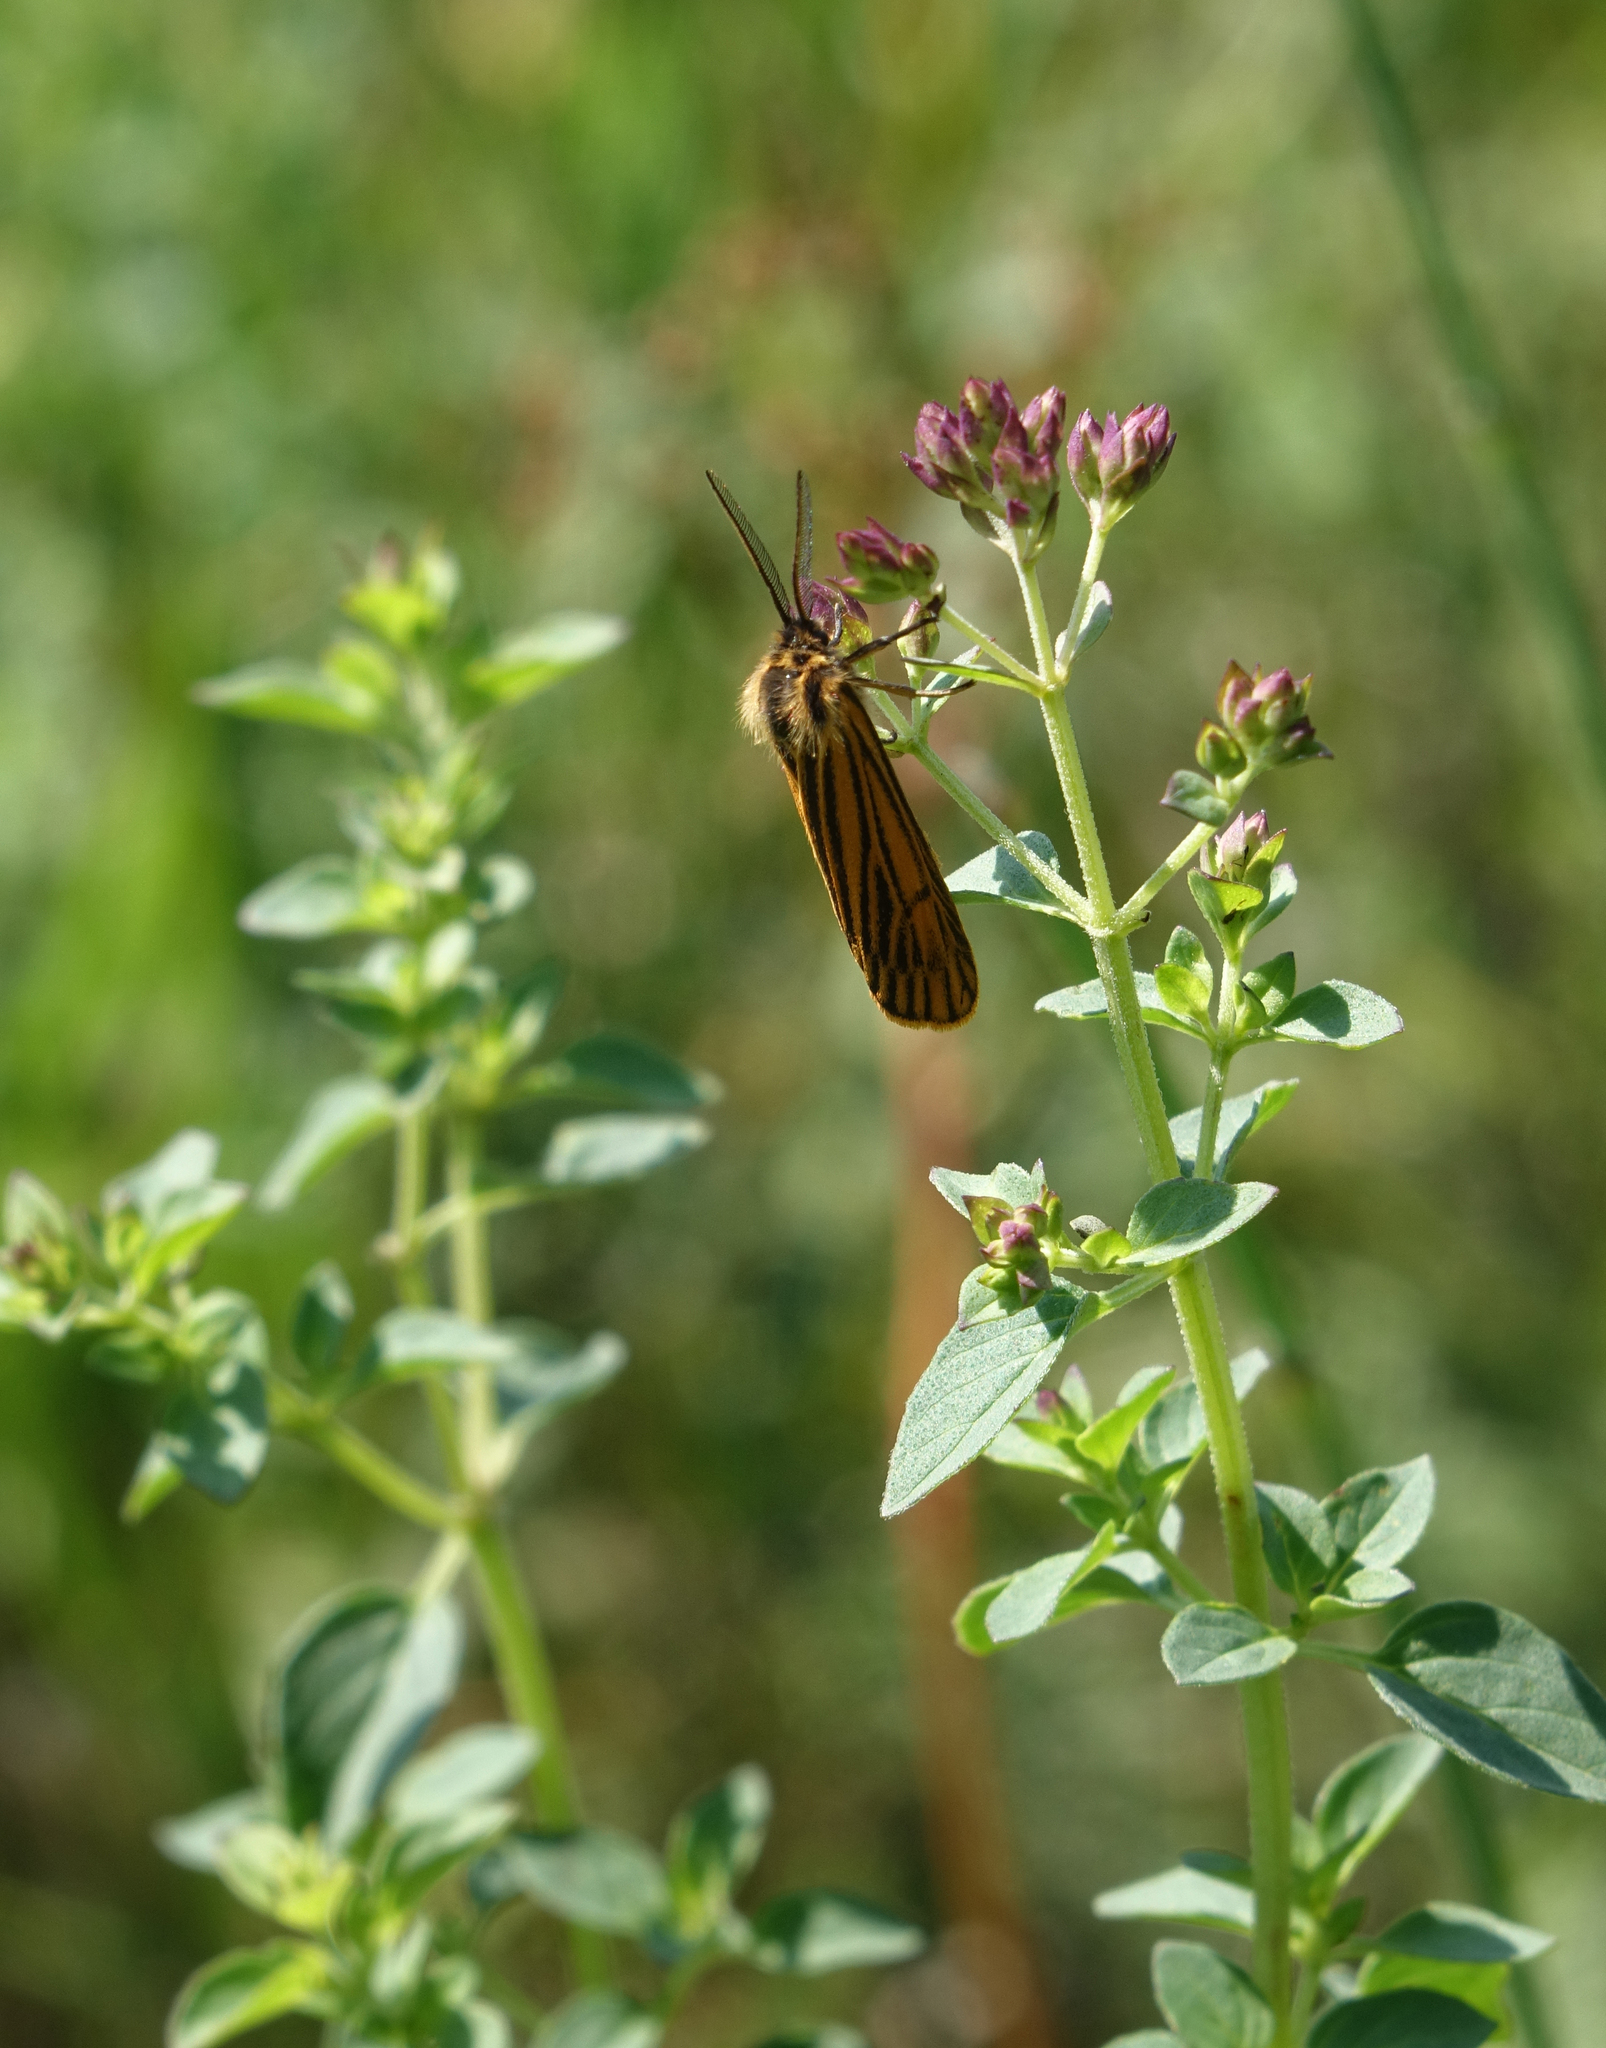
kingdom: Plantae
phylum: Tracheophyta
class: Magnoliopsida
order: Lamiales
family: Lamiaceae
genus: Origanum
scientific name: Origanum vulgare
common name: Wild marjoram
